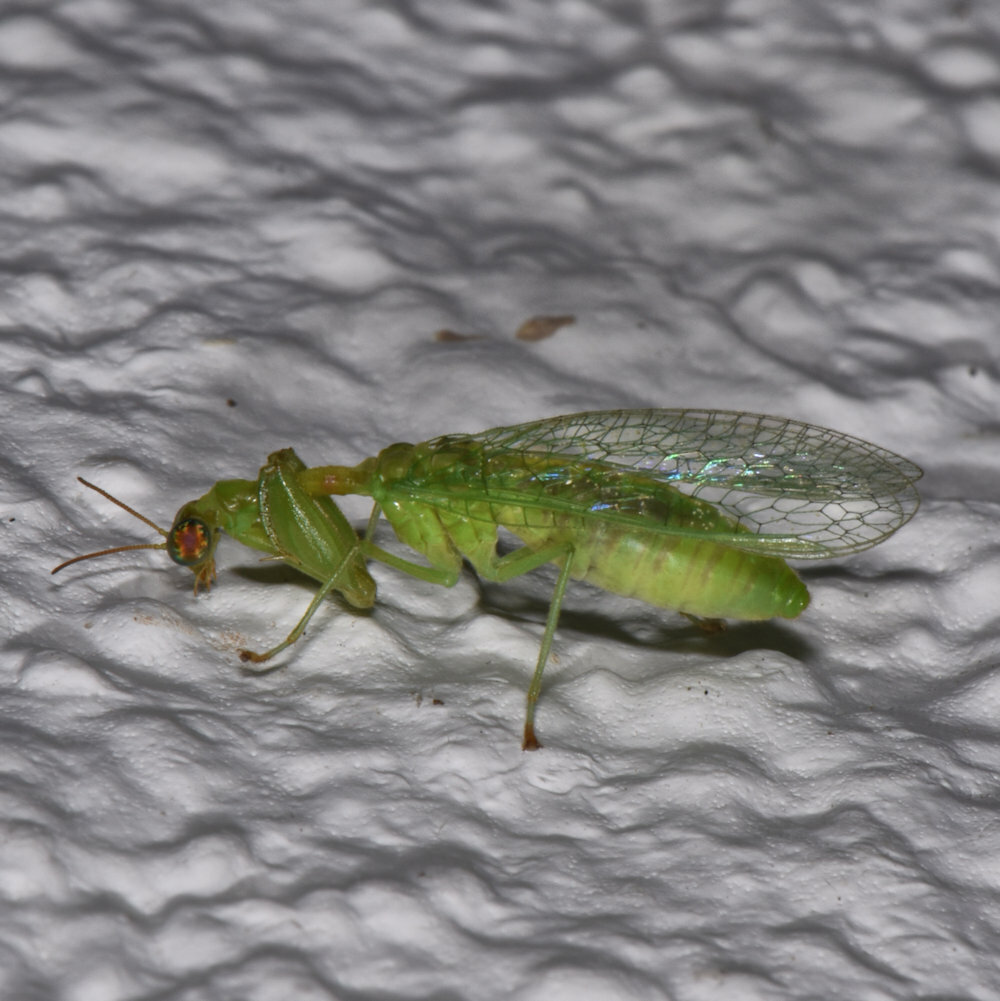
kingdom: Animalia
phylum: Arthropoda
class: Insecta
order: Neuroptera
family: Mantispidae
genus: Zeugomantispa
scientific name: Zeugomantispa minuta
